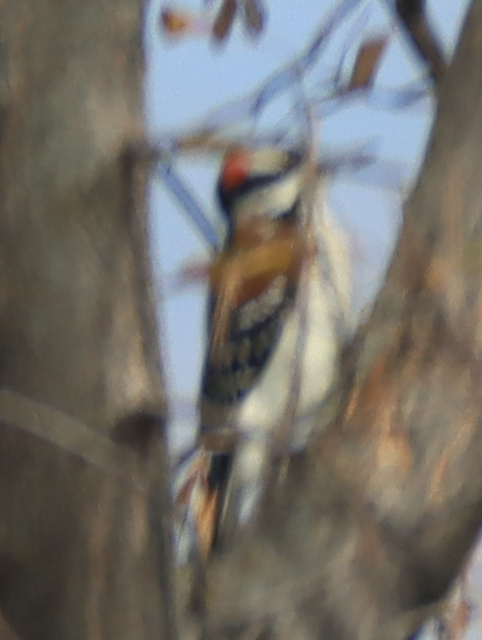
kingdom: Animalia
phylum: Chordata
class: Aves
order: Piciformes
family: Picidae
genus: Leuconotopicus
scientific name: Leuconotopicus villosus
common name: Hairy woodpecker
